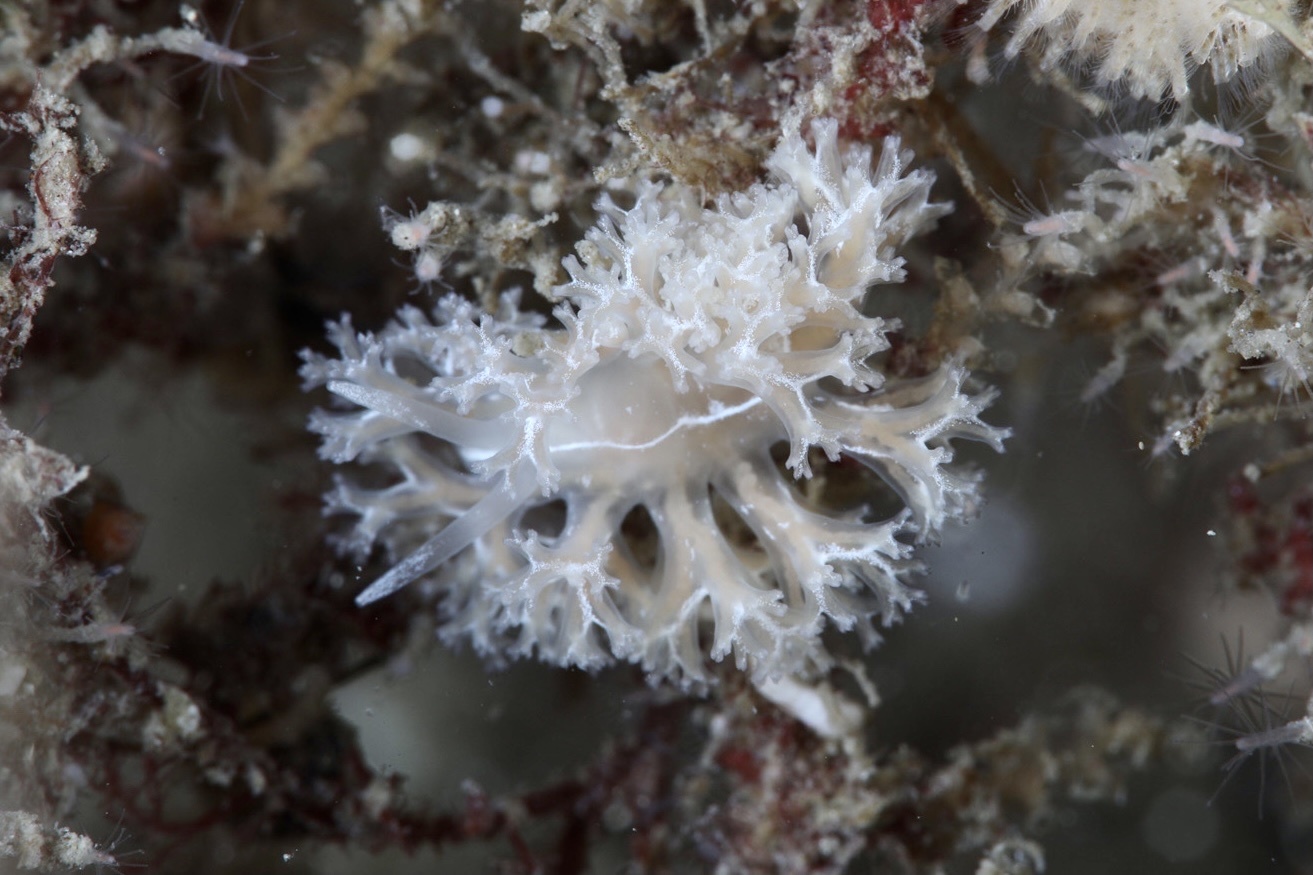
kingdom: Animalia
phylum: Mollusca
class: Gastropoda
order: Nudibranchia
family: Heroidae
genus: Hero
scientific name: Hero formosa
